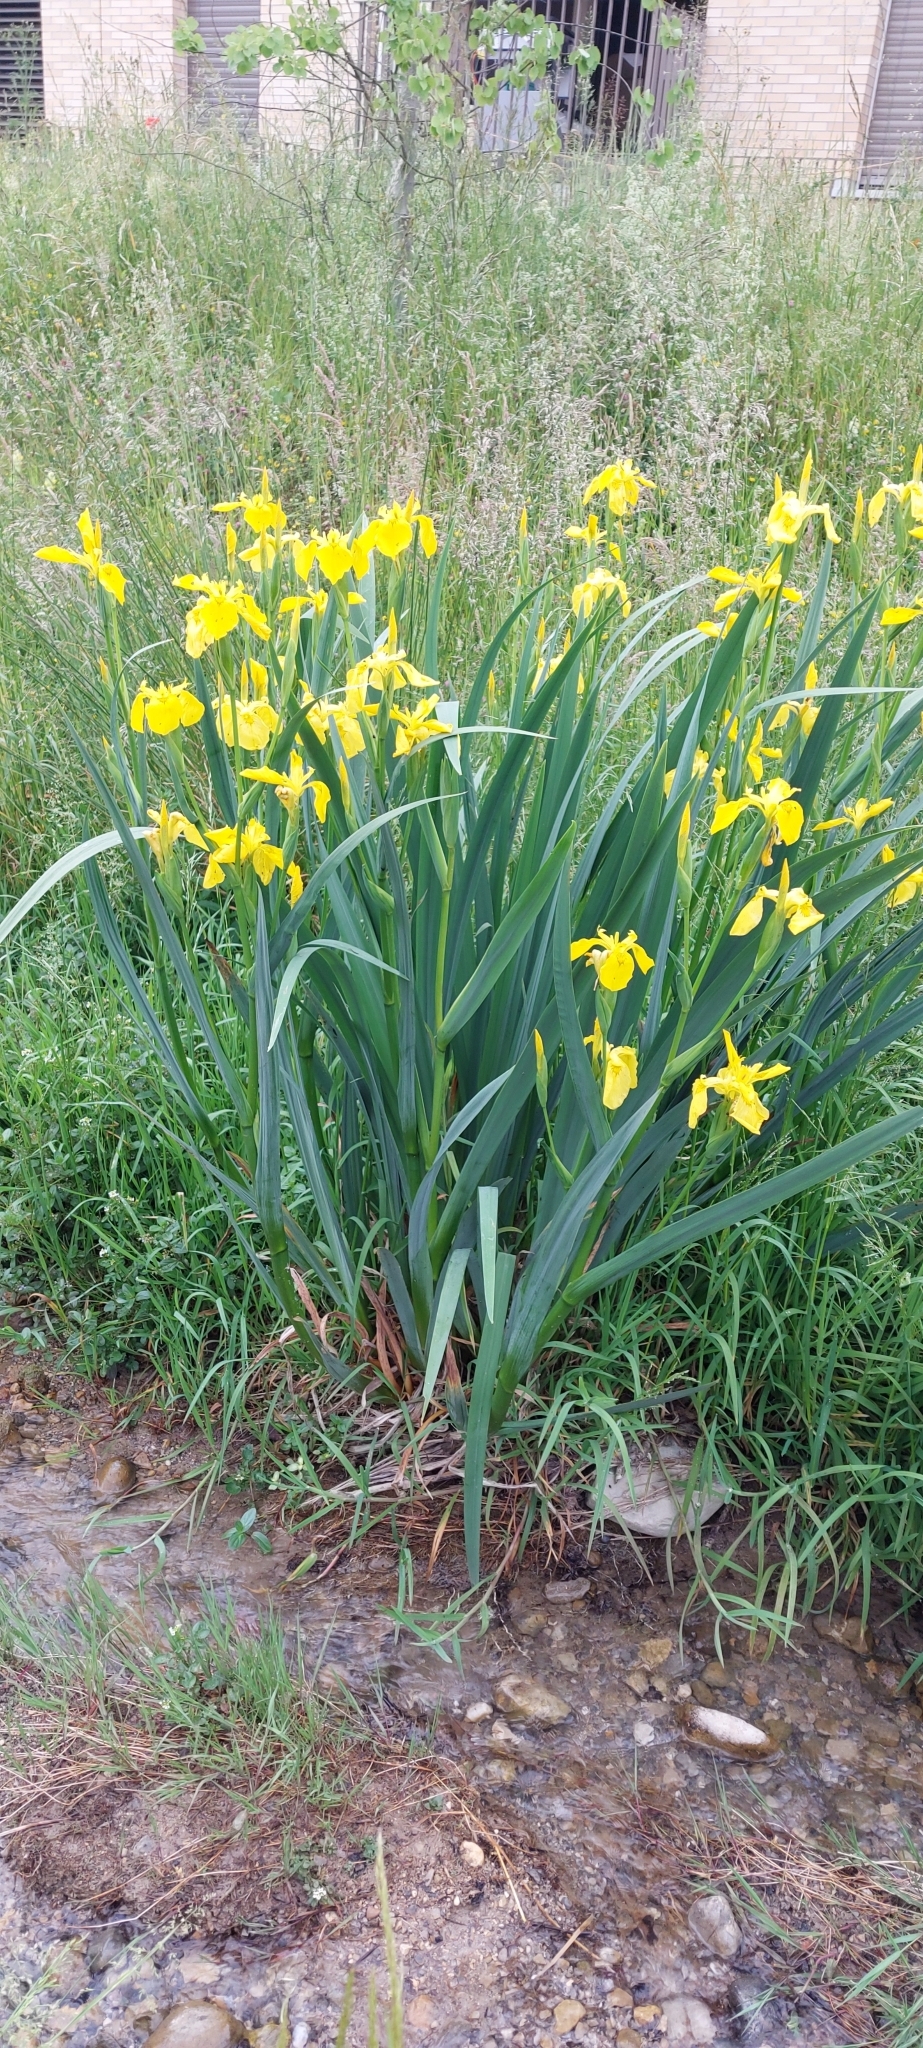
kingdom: Plantae
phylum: Tracheophyta
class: Liliopsida
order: Asparagales
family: Iridaceae
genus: Iris
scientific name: Iris pseudacorus
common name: Yellow flag
